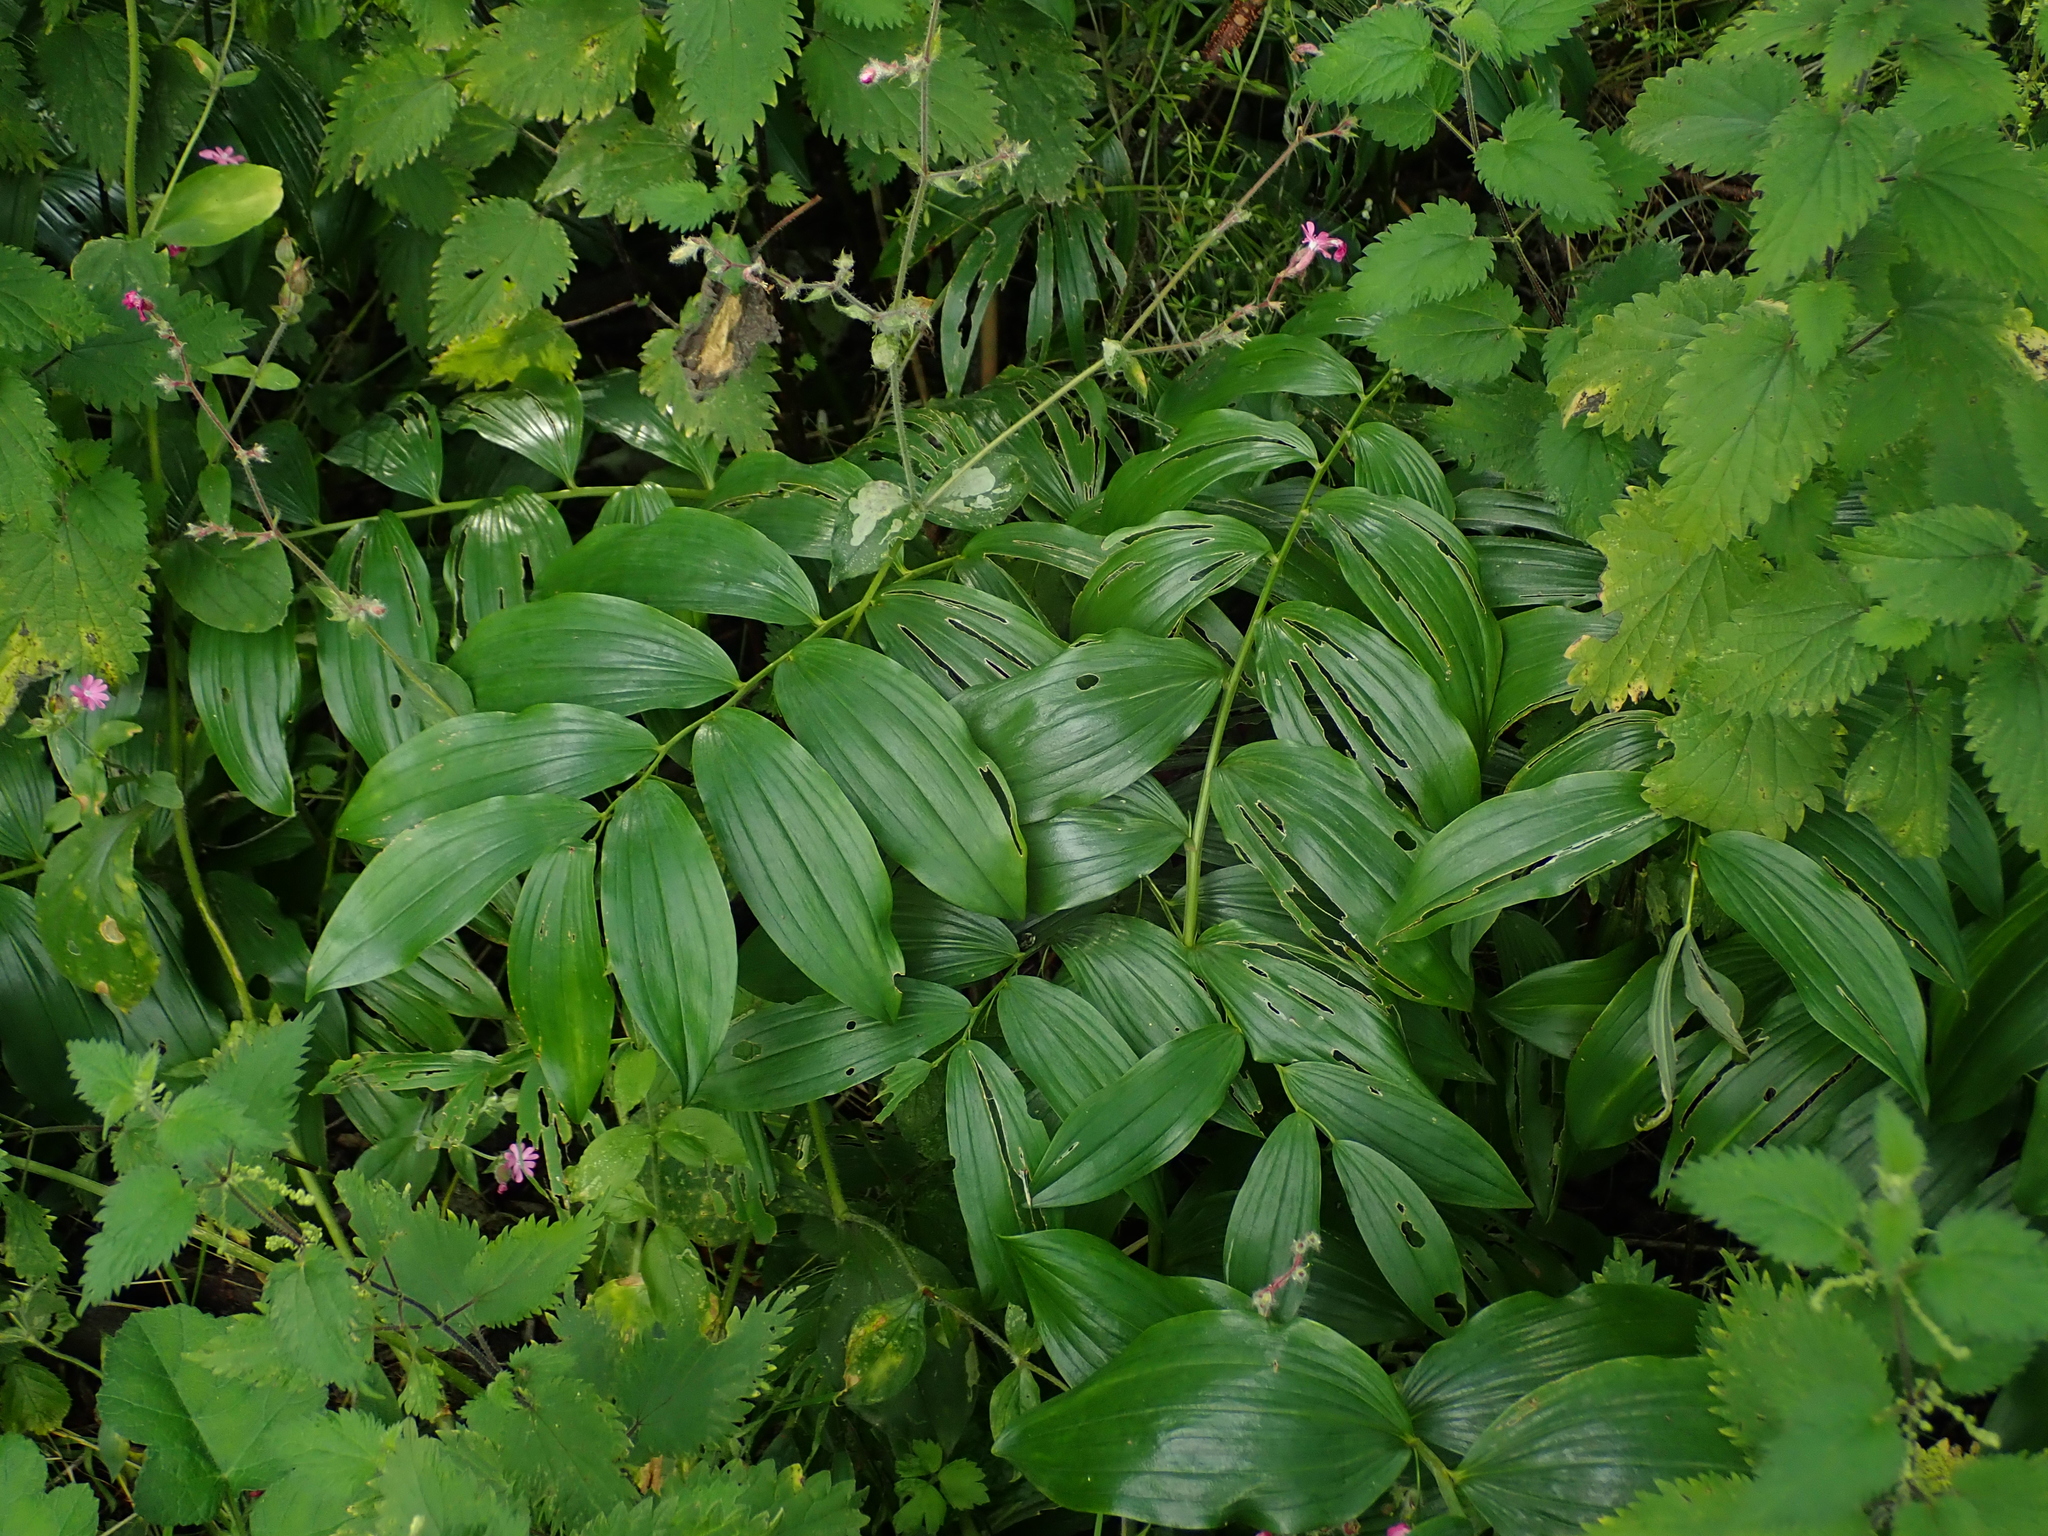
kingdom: Plantae
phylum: Tracheophyta
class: Liliopsida
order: Asparagales
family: Asparagaceae
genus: Polygonatum
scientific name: Polygonatum hybridum
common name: Garden solomon's-seal
